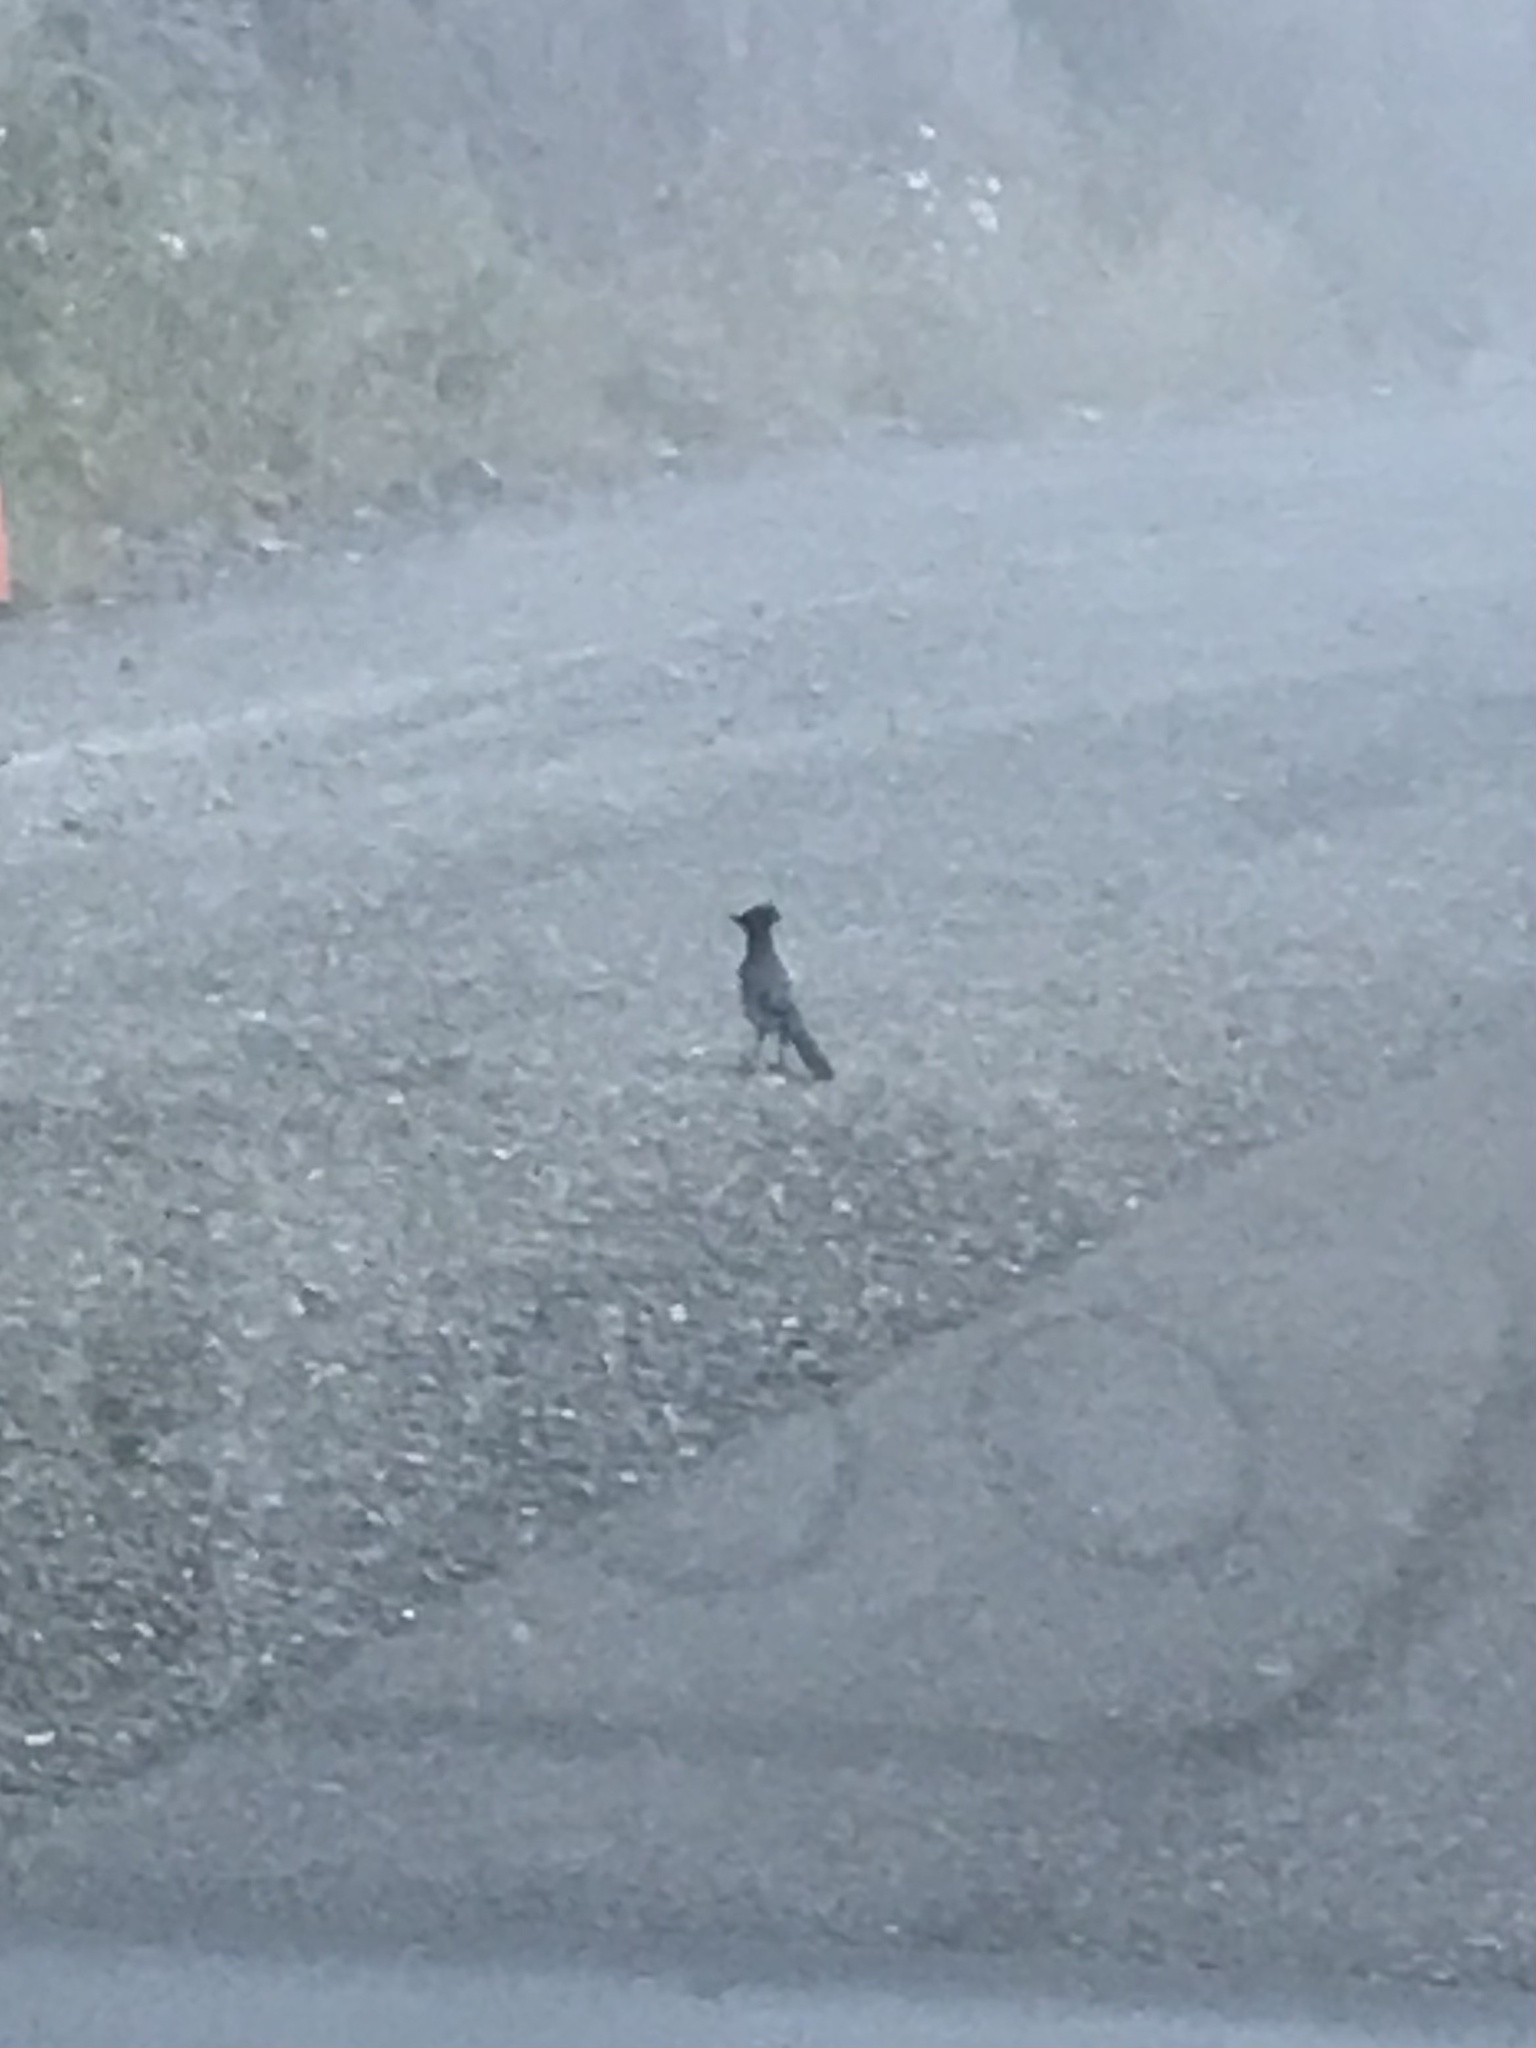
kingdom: Animalia
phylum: Chordata
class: Aves
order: Passeriformes
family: Corvidae
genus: Cyanocitta
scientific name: Cyanocitta stelleri
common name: Steller's jay
